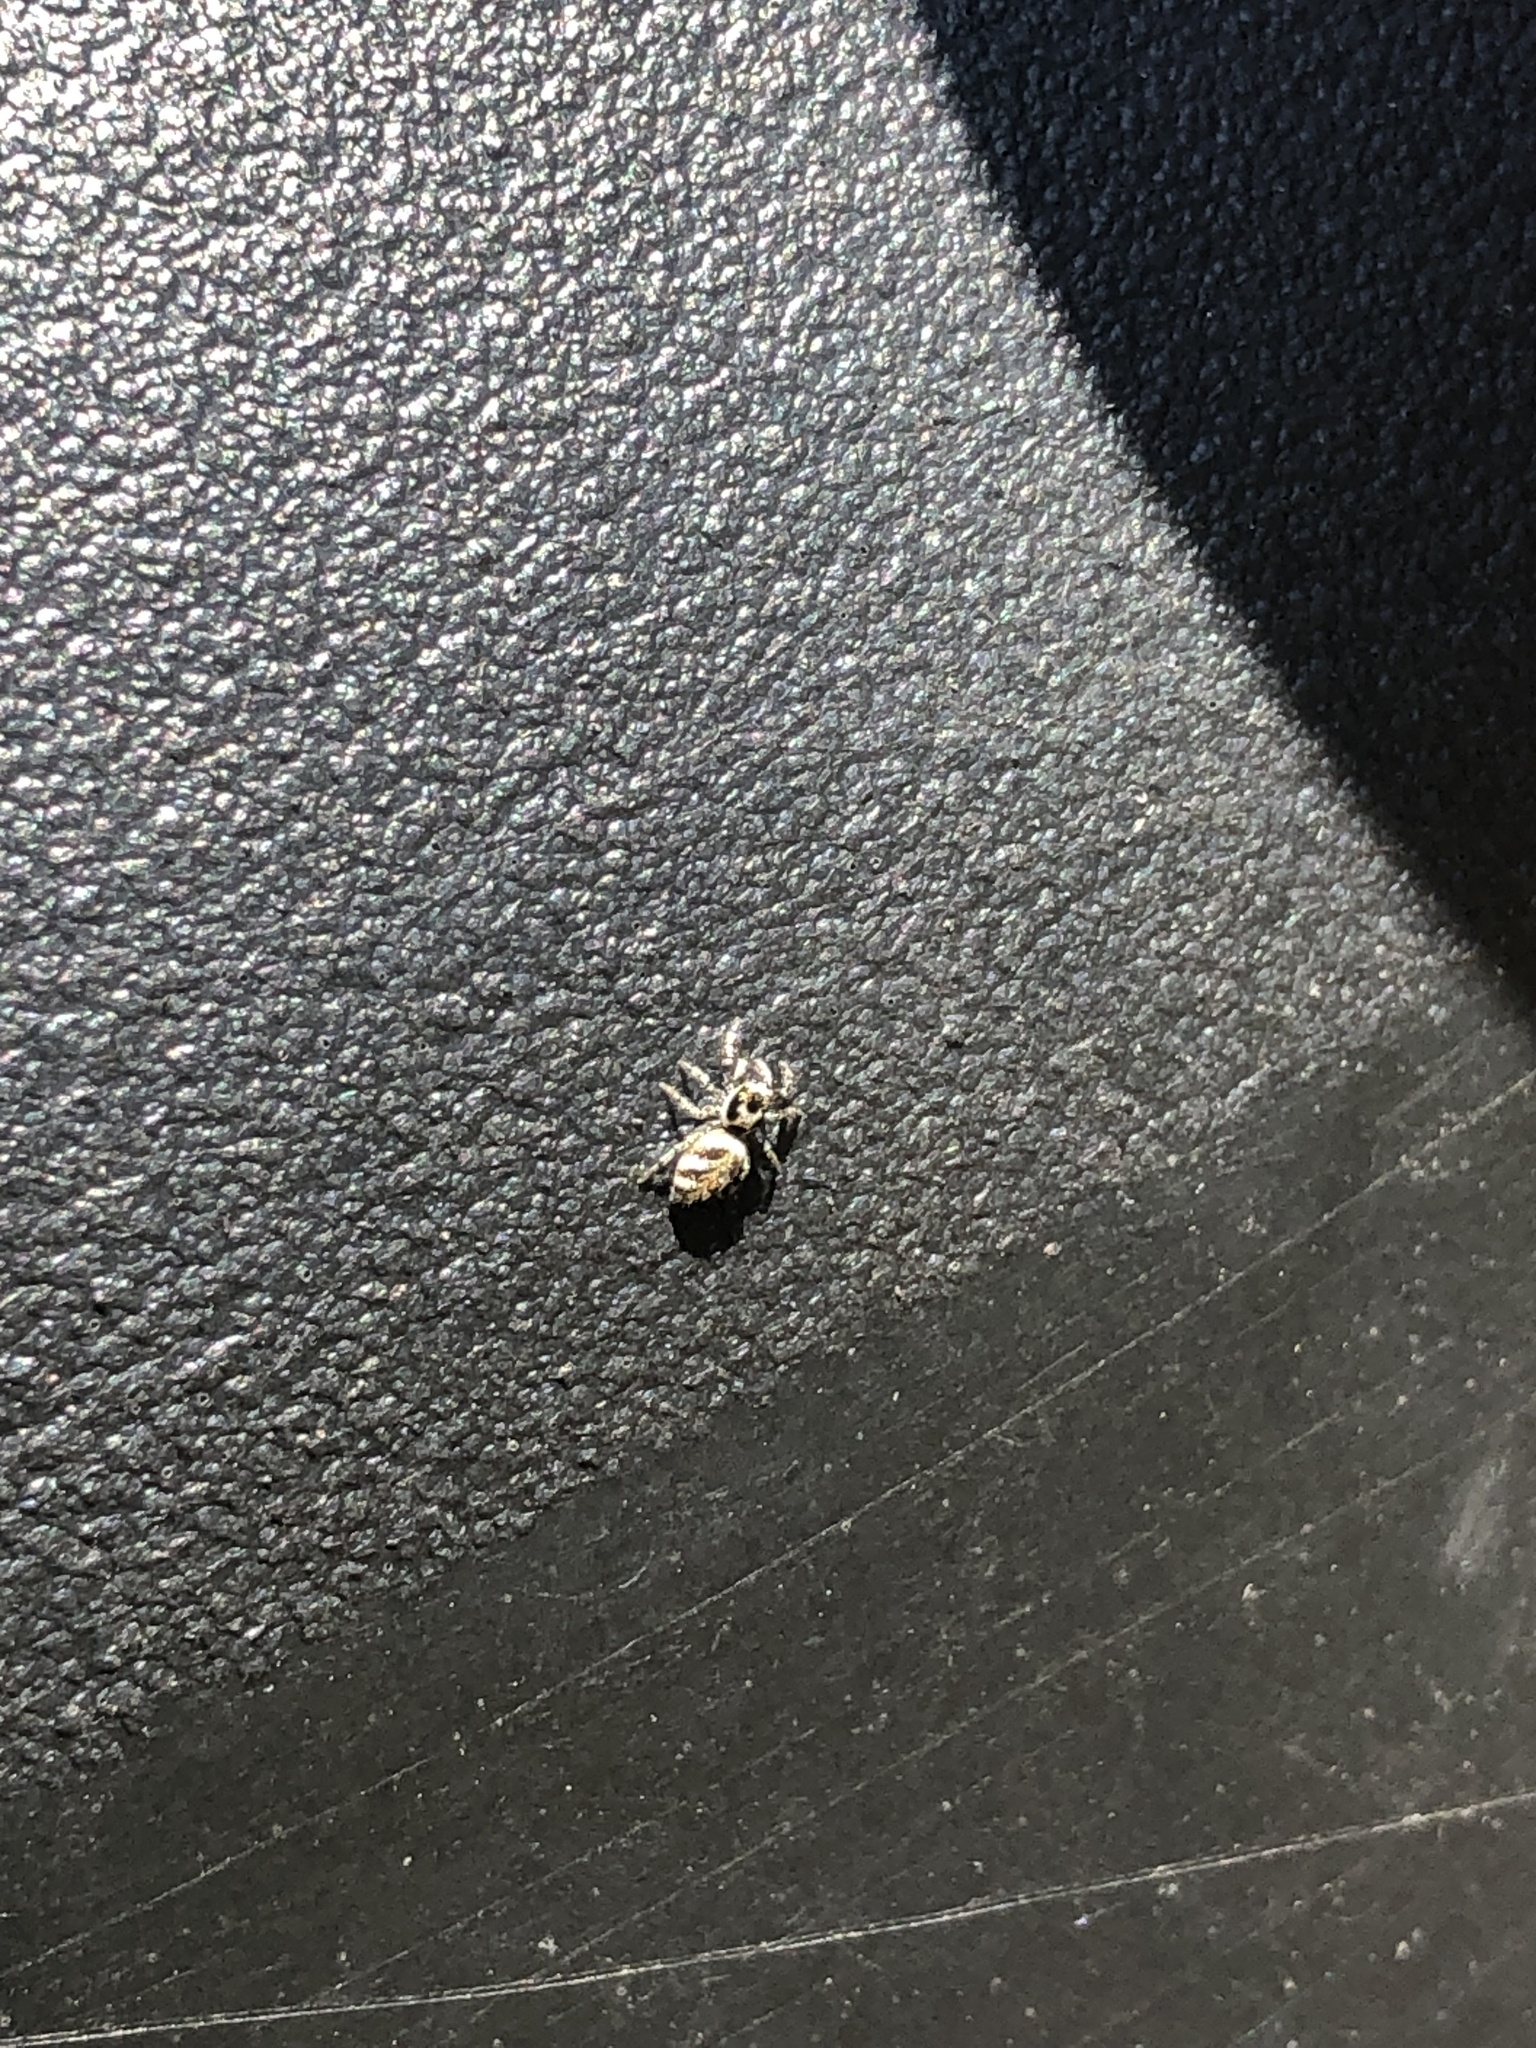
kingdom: Animalia
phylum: Arthropoda
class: Arachnida
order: Araneae
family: Salticidae
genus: Salticus
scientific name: Salticus scenicus
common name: Zebra jumper
